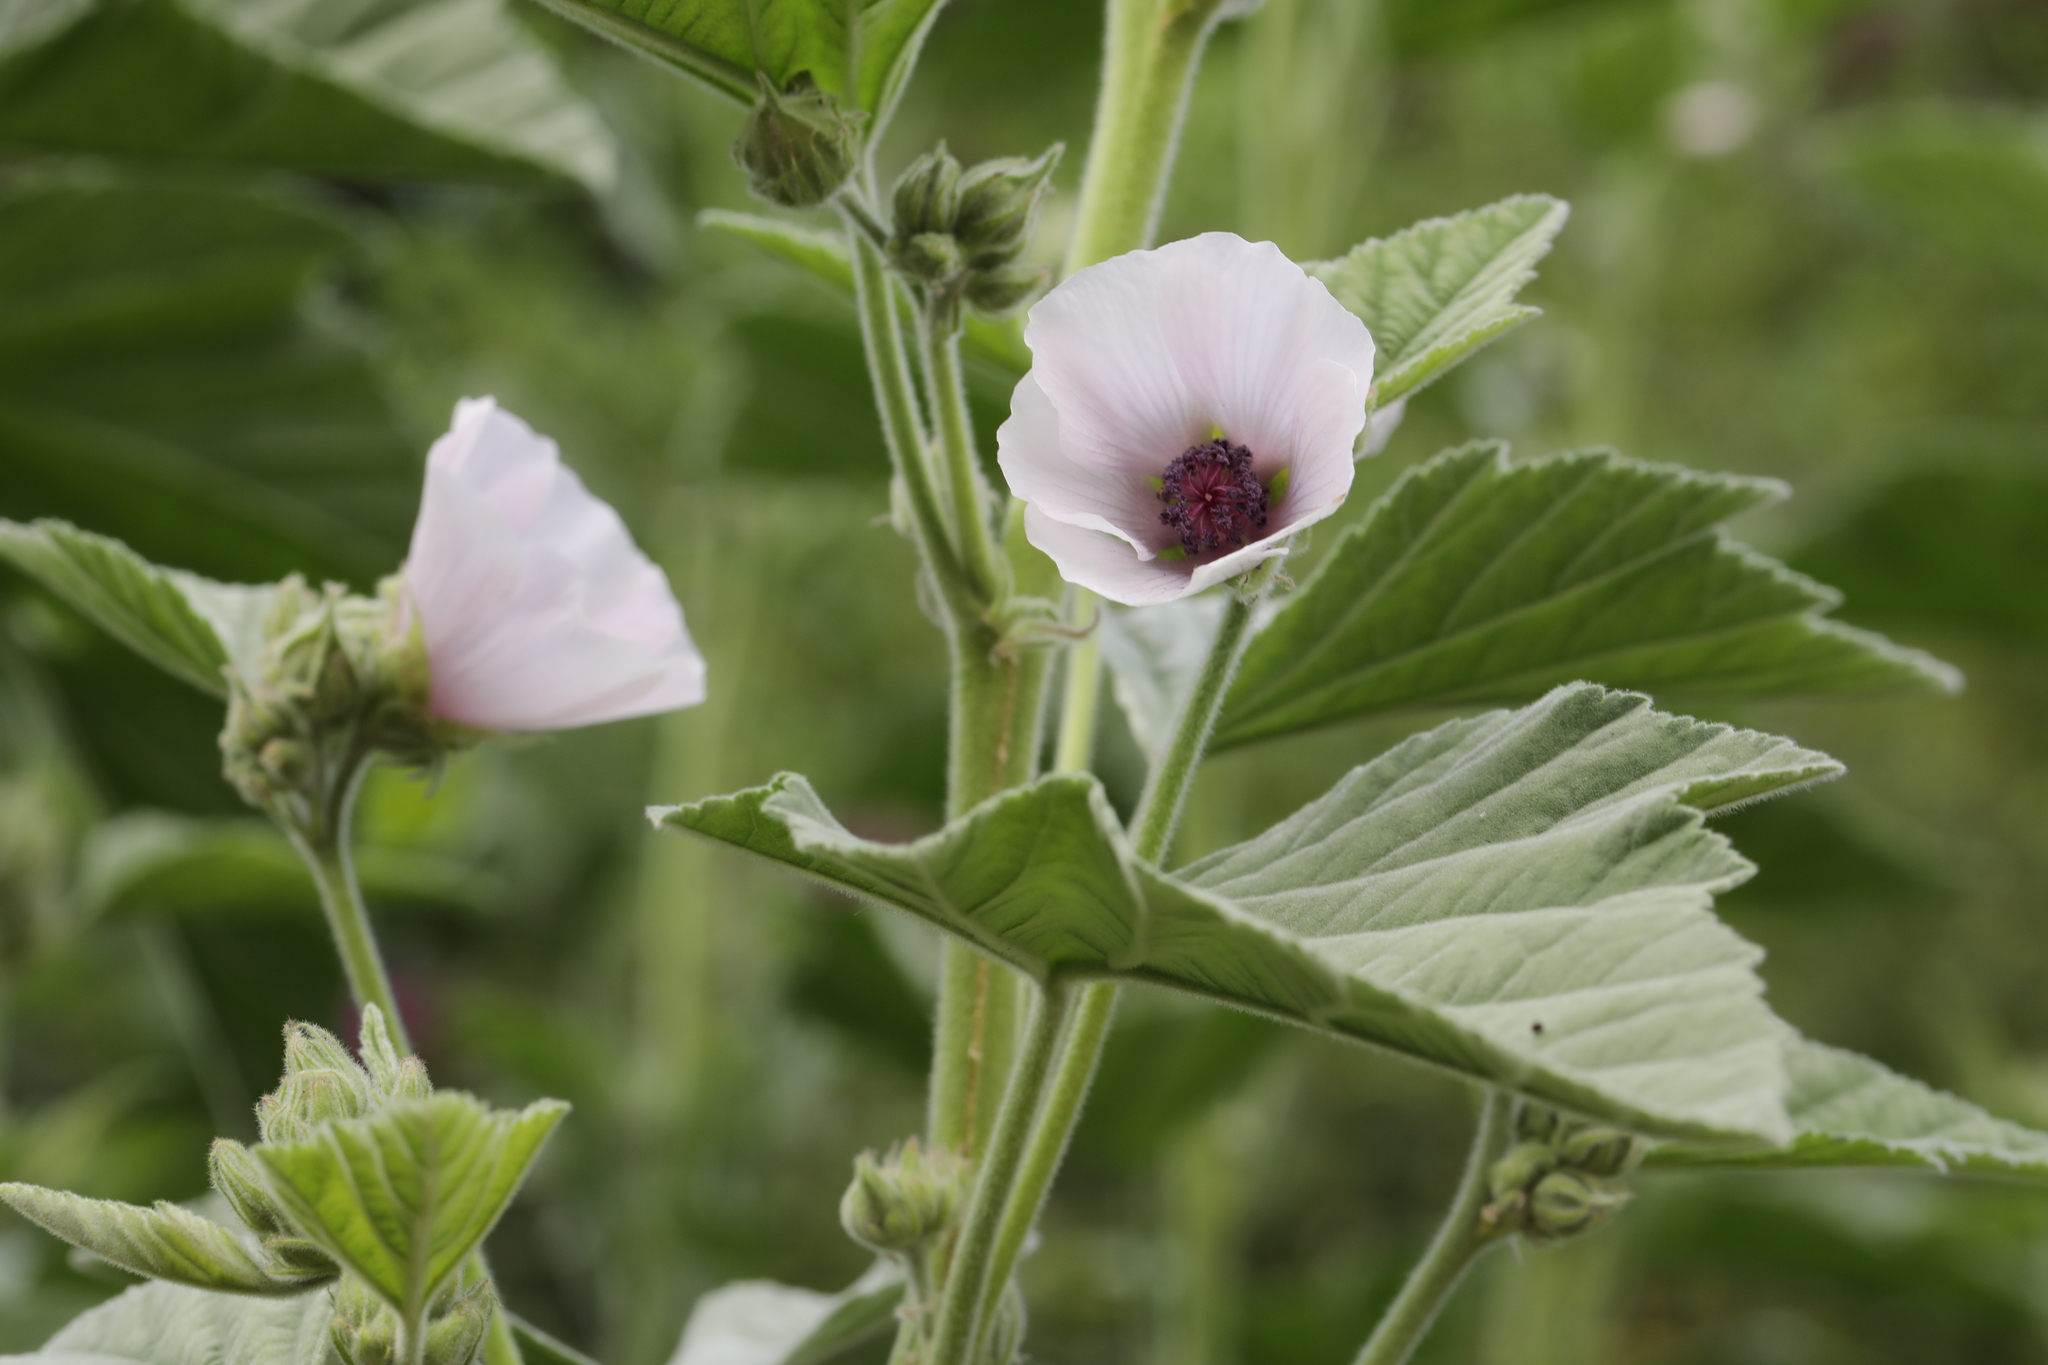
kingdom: Plantae
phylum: Tracheophyta
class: Magnoliopsida
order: Malvales
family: Malvaceae
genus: Althaea
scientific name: Althaea officinalis
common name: Marsh-mallow
